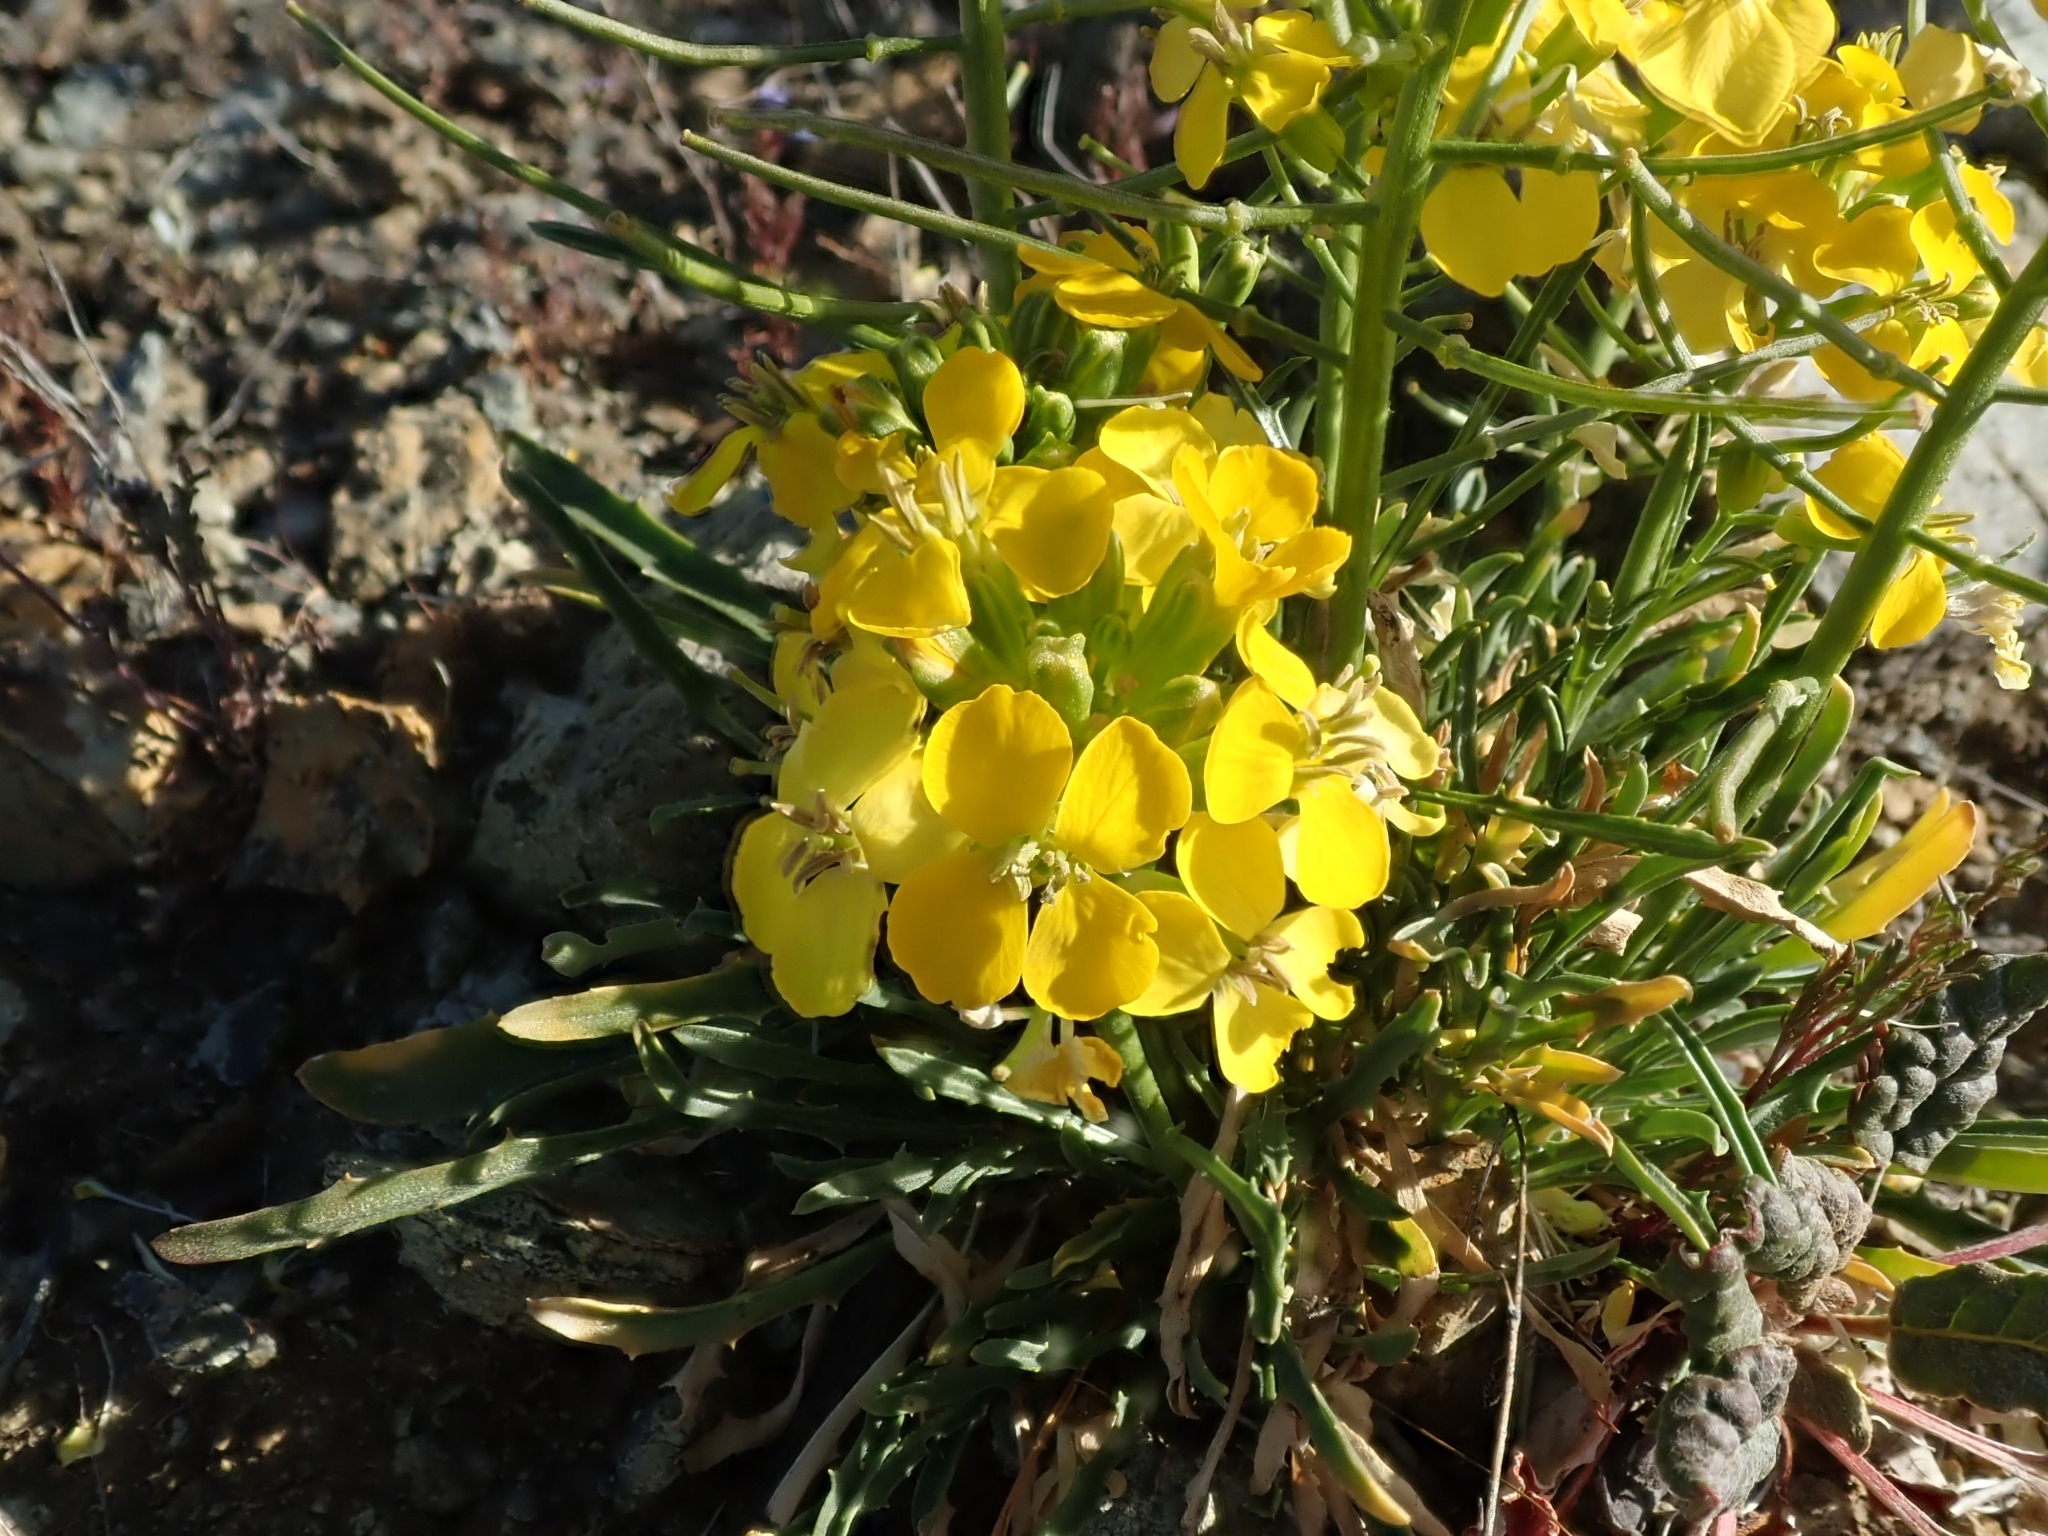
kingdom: Plantae
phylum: Tracheophyta
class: Magnoliopsida
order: Brassicales
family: Brassicaceae
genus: Erysimum
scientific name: Erysimum franciscanum
